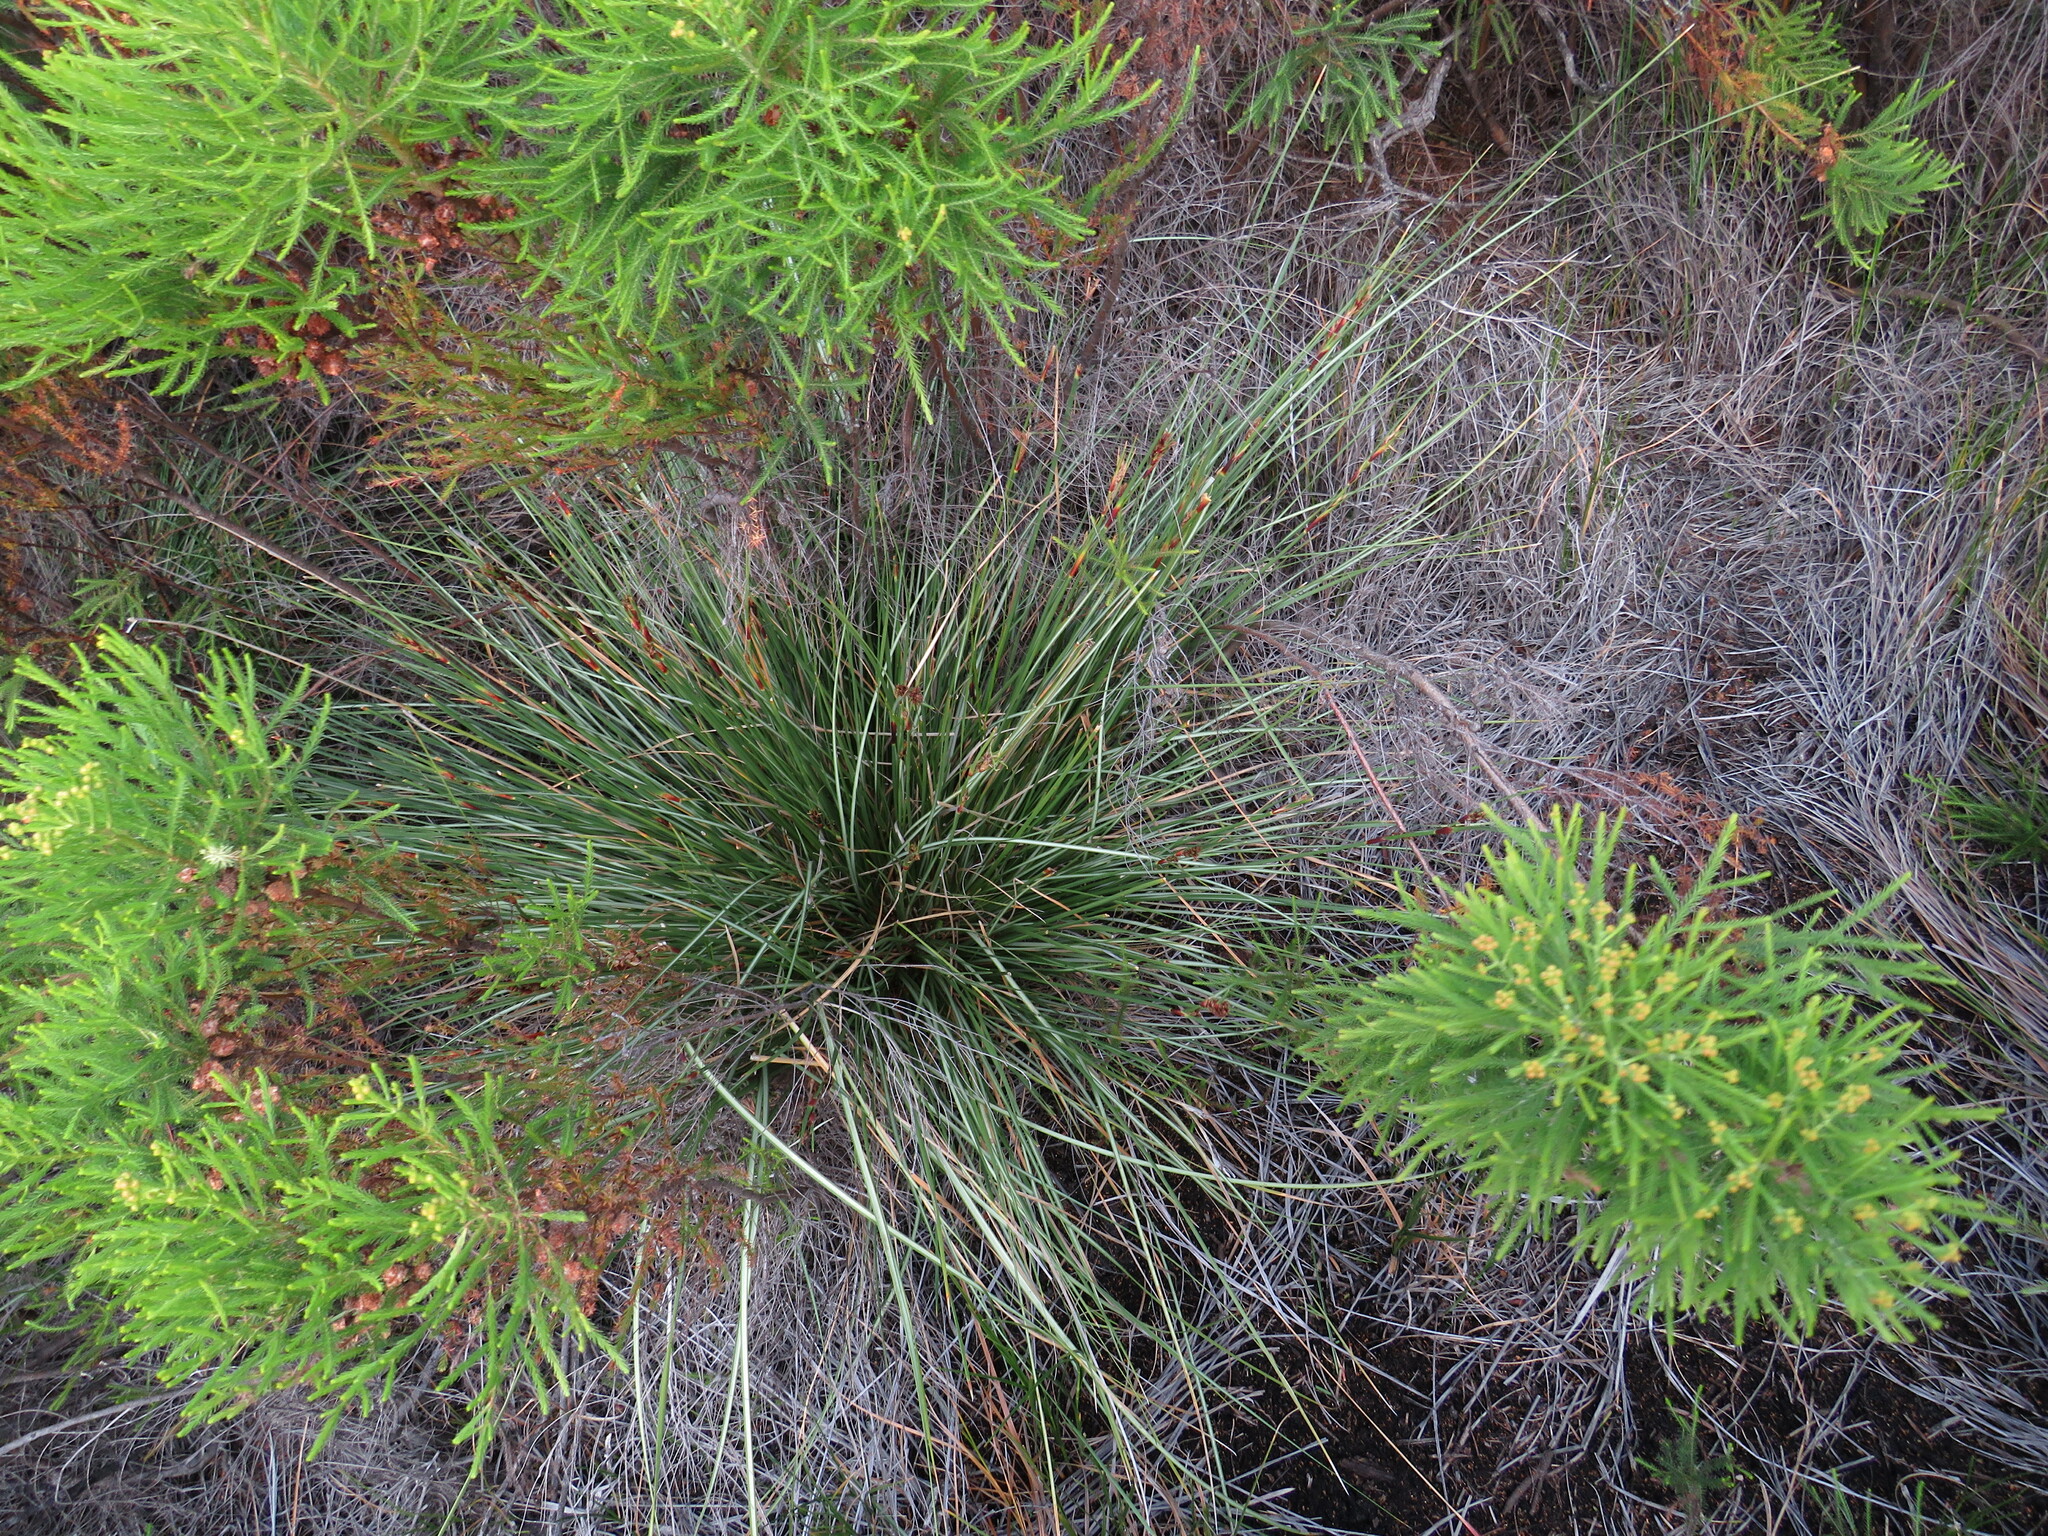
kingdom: Plantae
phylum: Tracheophyta
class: Liliopsida
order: Poales
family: Cyperaceae
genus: Cyathocoma
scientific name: Cyathocoma hexandra
